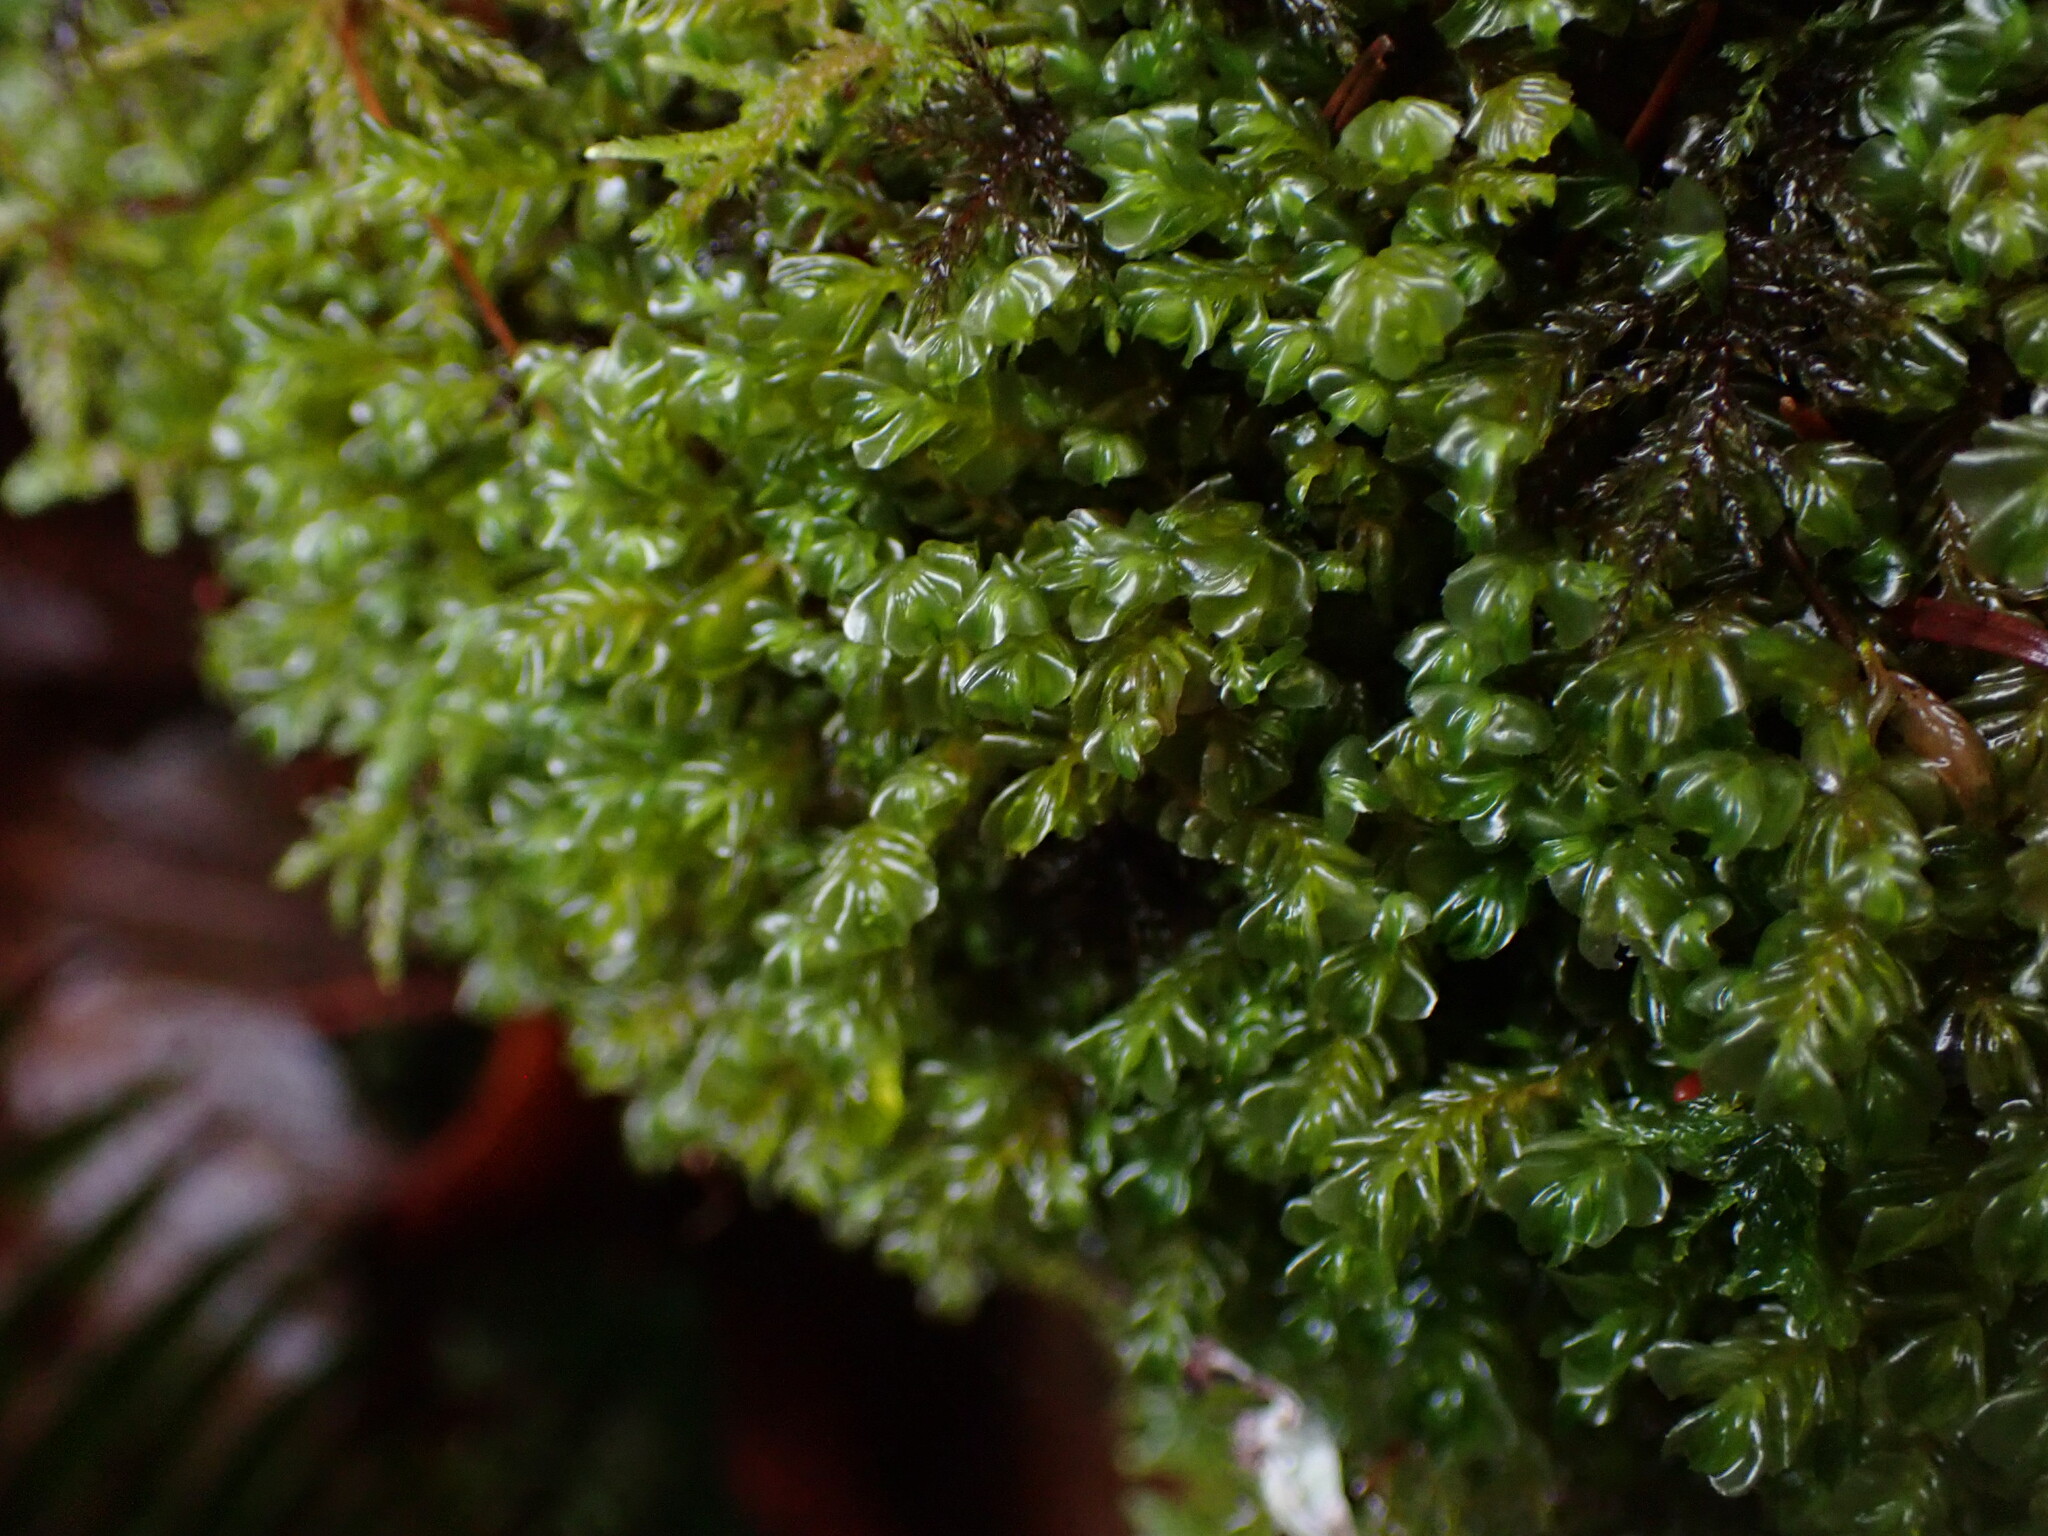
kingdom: Plantae
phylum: Marchantiophyta
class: Jungermanniopsida
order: Jungermanniales
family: Plagiochilaceae
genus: Plagiochila
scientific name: Plagiochila porelloides
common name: Lesser featherwort
